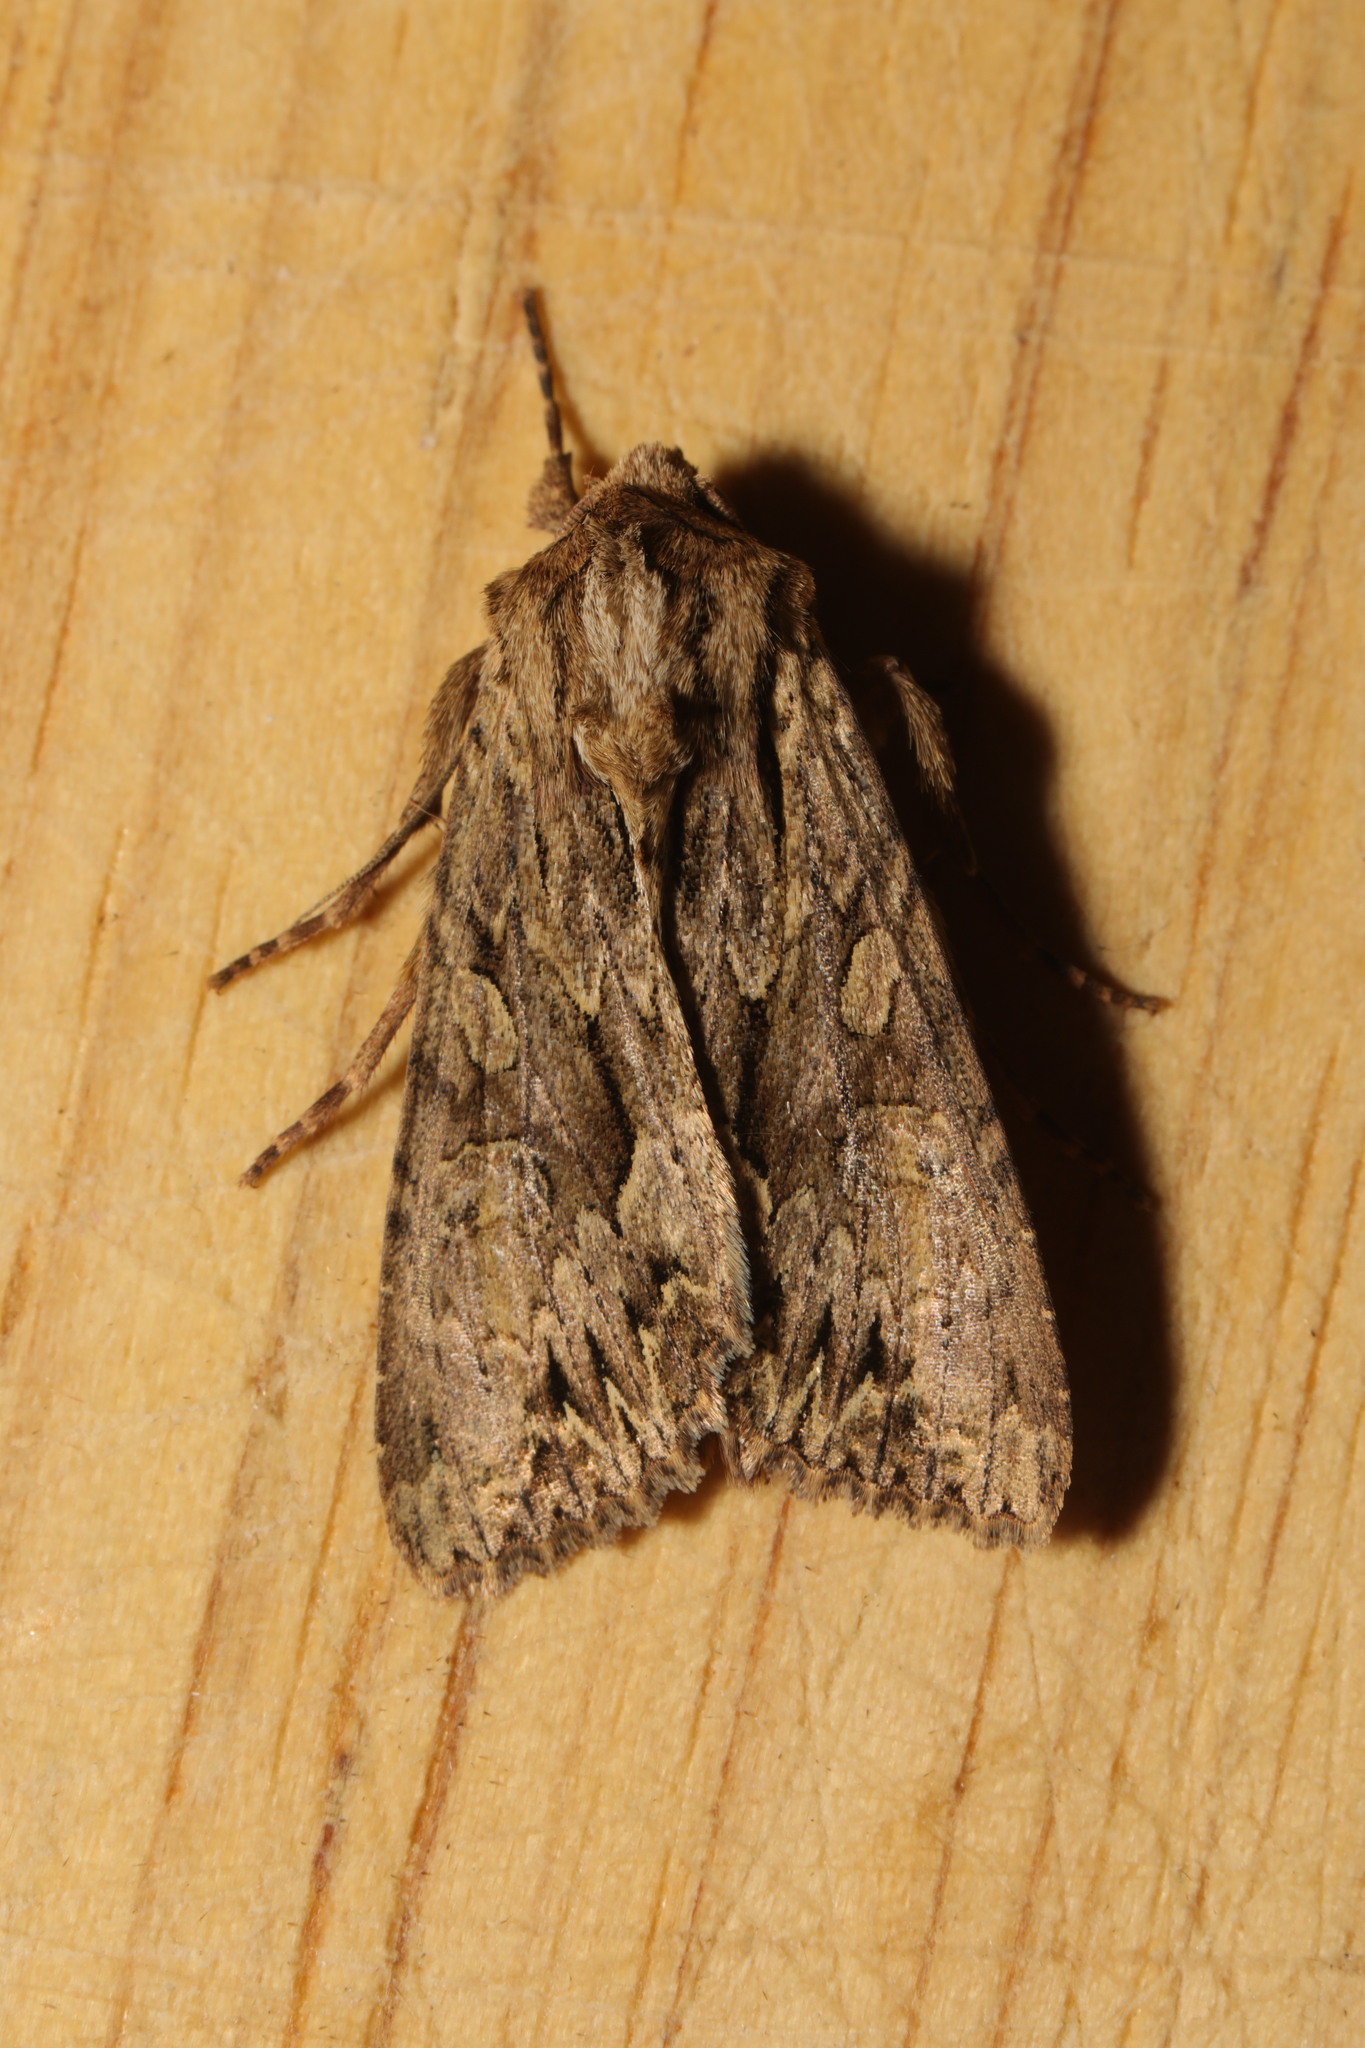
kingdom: Animalia
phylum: Arthropoda
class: Insecta
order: Lepidoptera
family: Noctuidae
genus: Apamea
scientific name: Apamea monoglypha
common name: Dark arches
